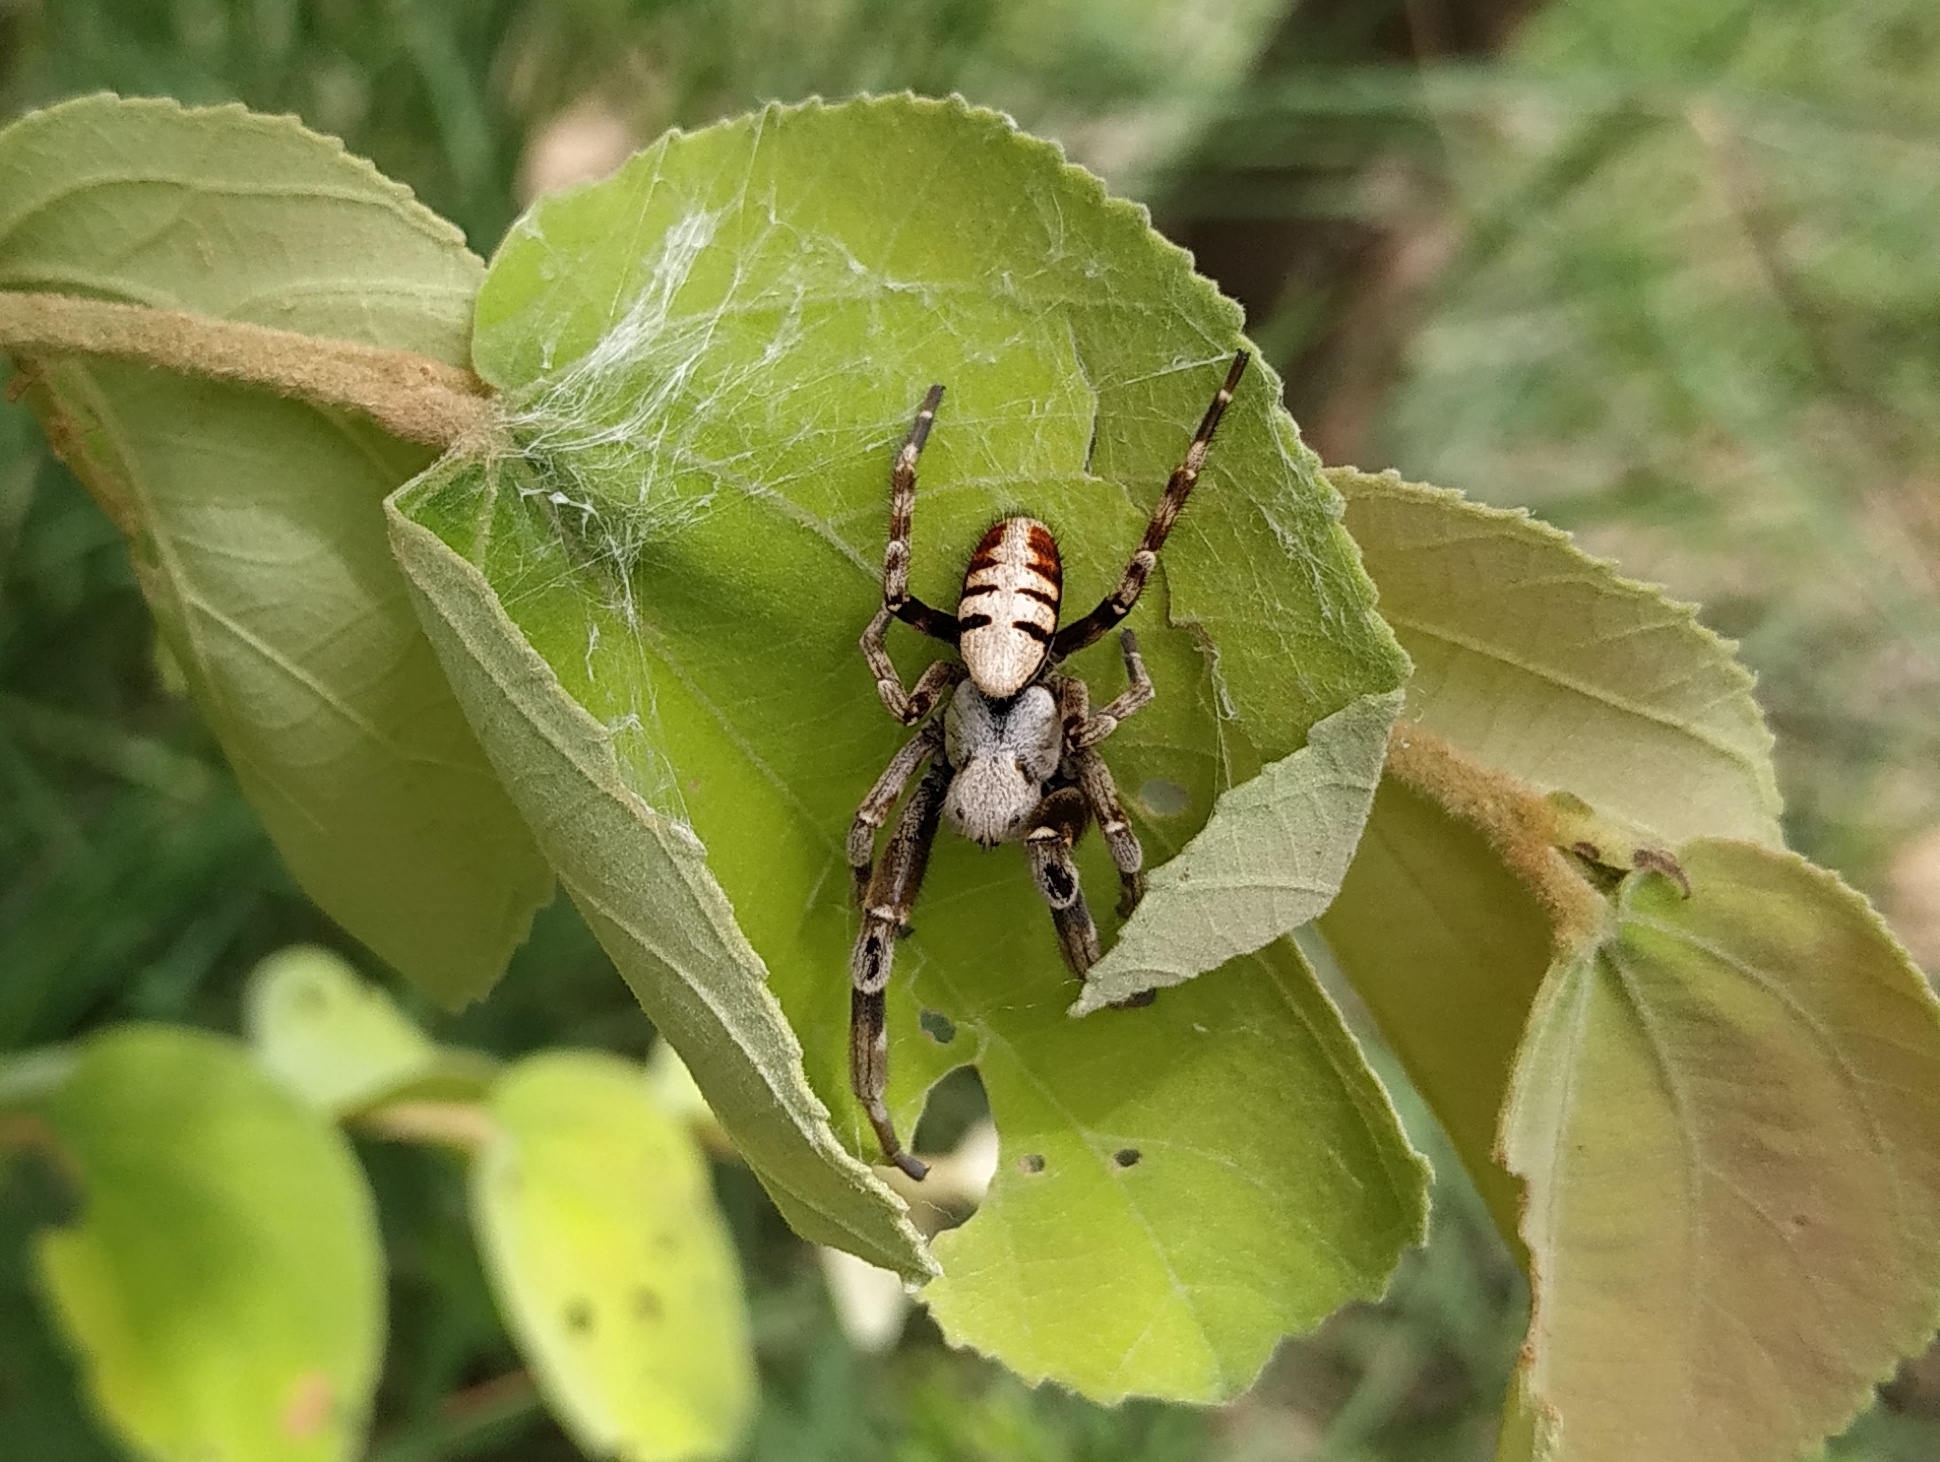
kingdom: Animalia
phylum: Arthropoda
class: Arachnida
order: Araneae
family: Eresidae
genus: Stegodyphus
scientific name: Stegodyphus pacificus
